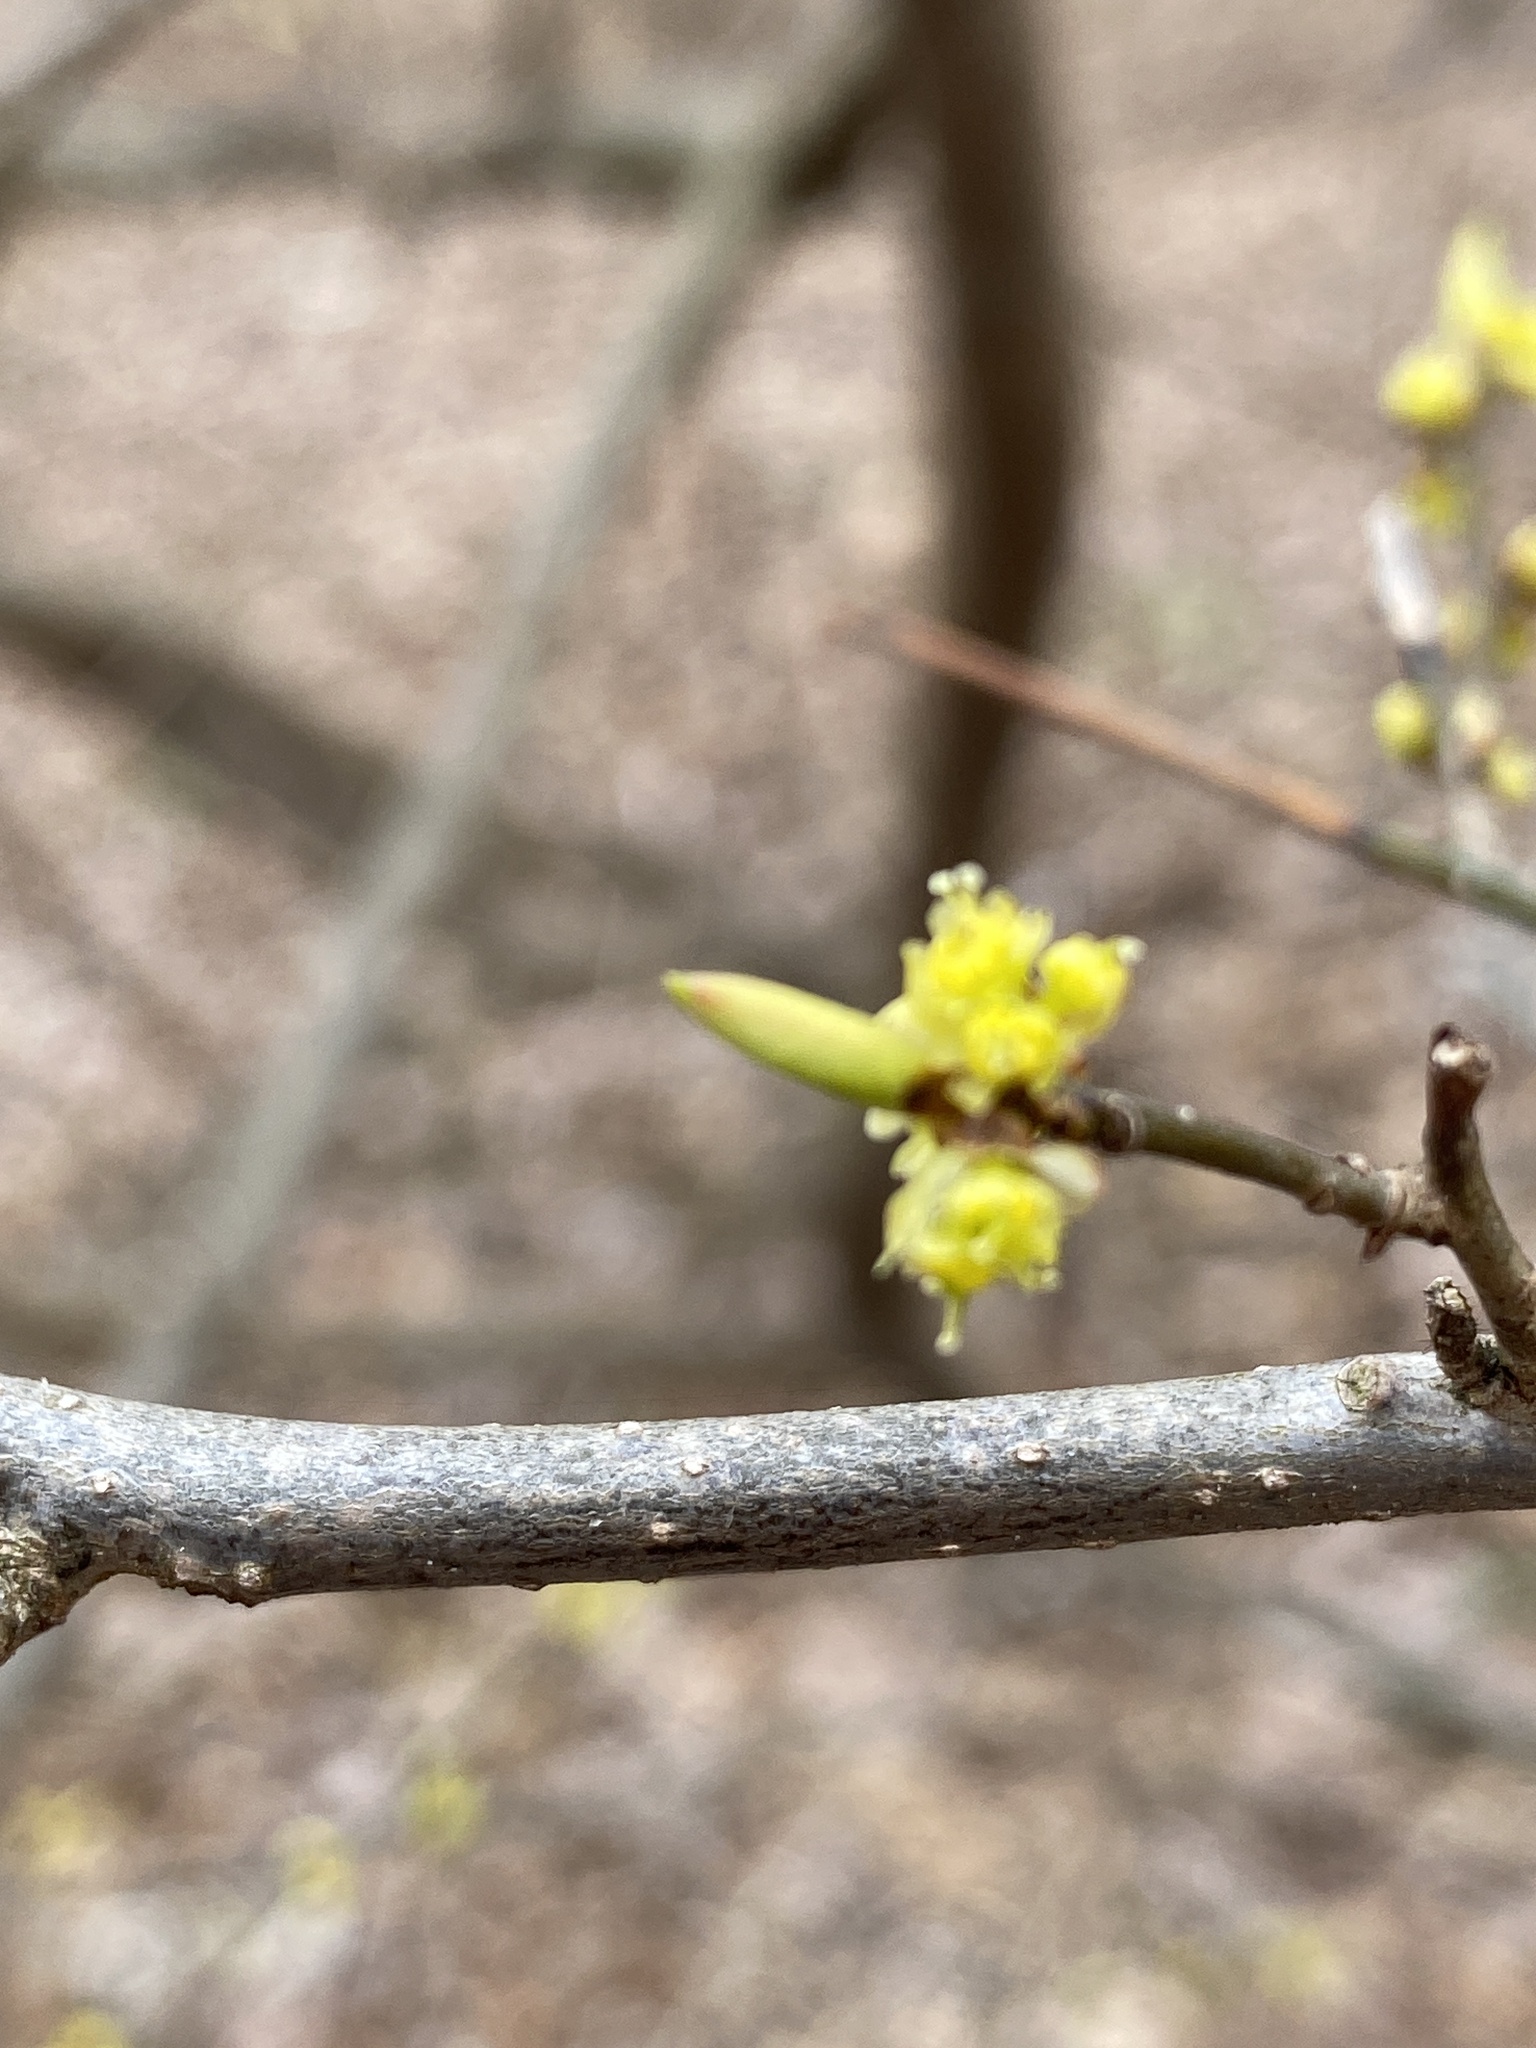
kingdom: Plantae
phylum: Tracheophyta
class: Magnoliopsida
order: Laurales
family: Lauraceae
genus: Lindera
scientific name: Lindera benzoin
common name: Spicebush
